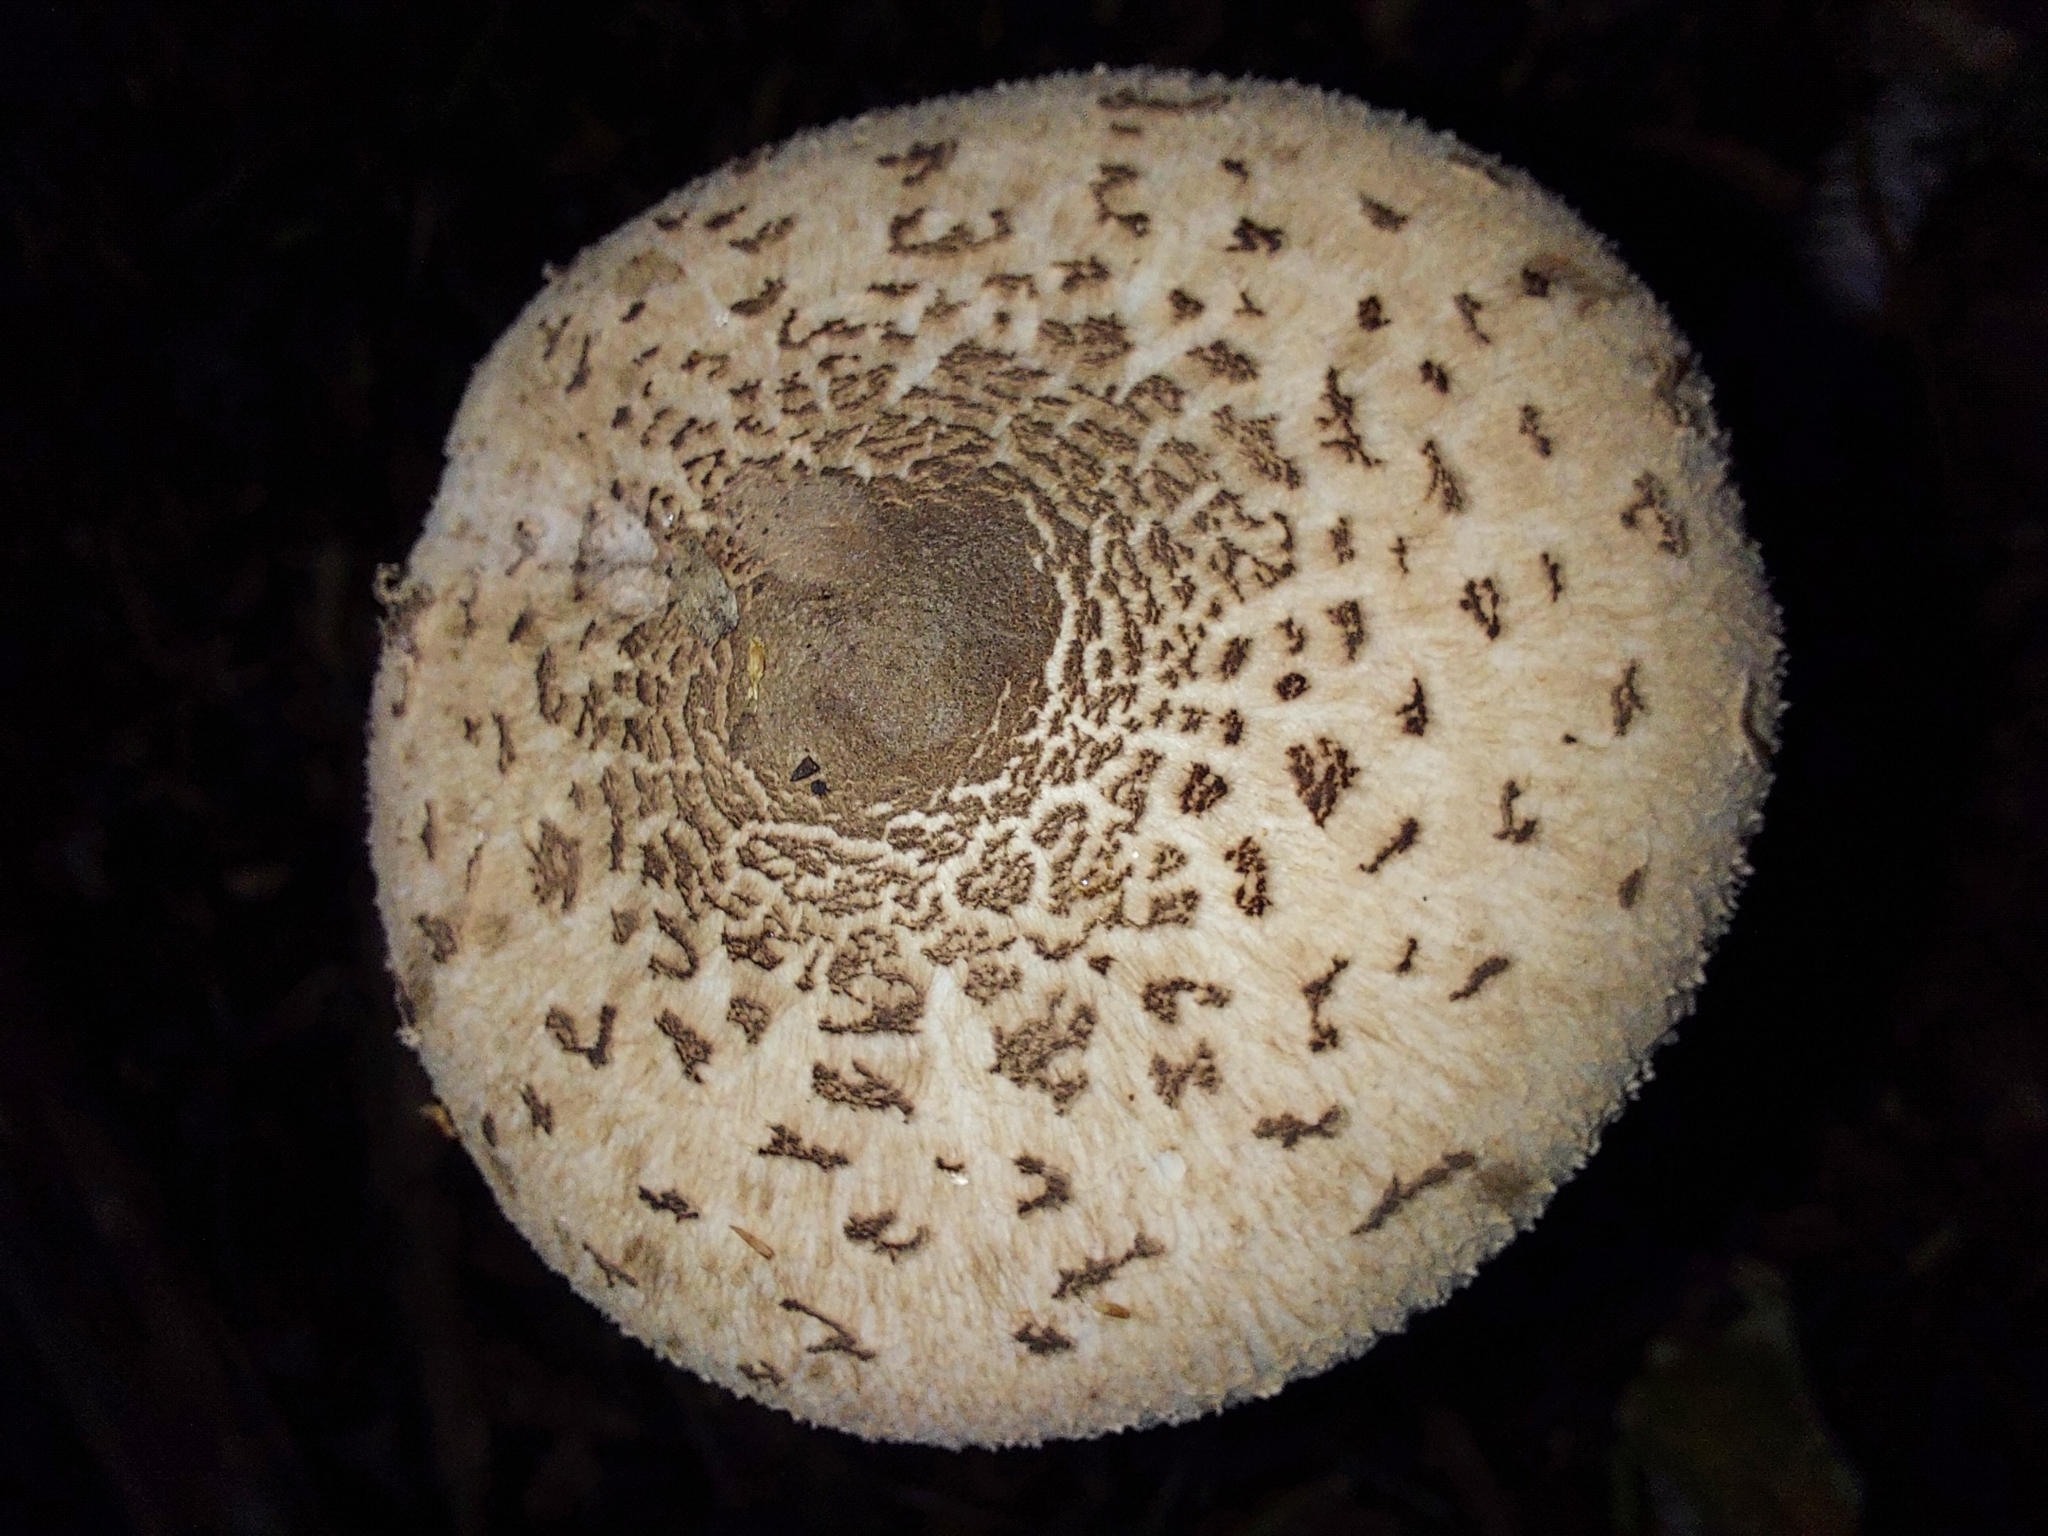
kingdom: Fungi
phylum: Basidiomycota
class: Agaricomycetes
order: Agaricales
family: Agaricaceae
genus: Macrolepiota
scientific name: Macrolepiota clelandii
